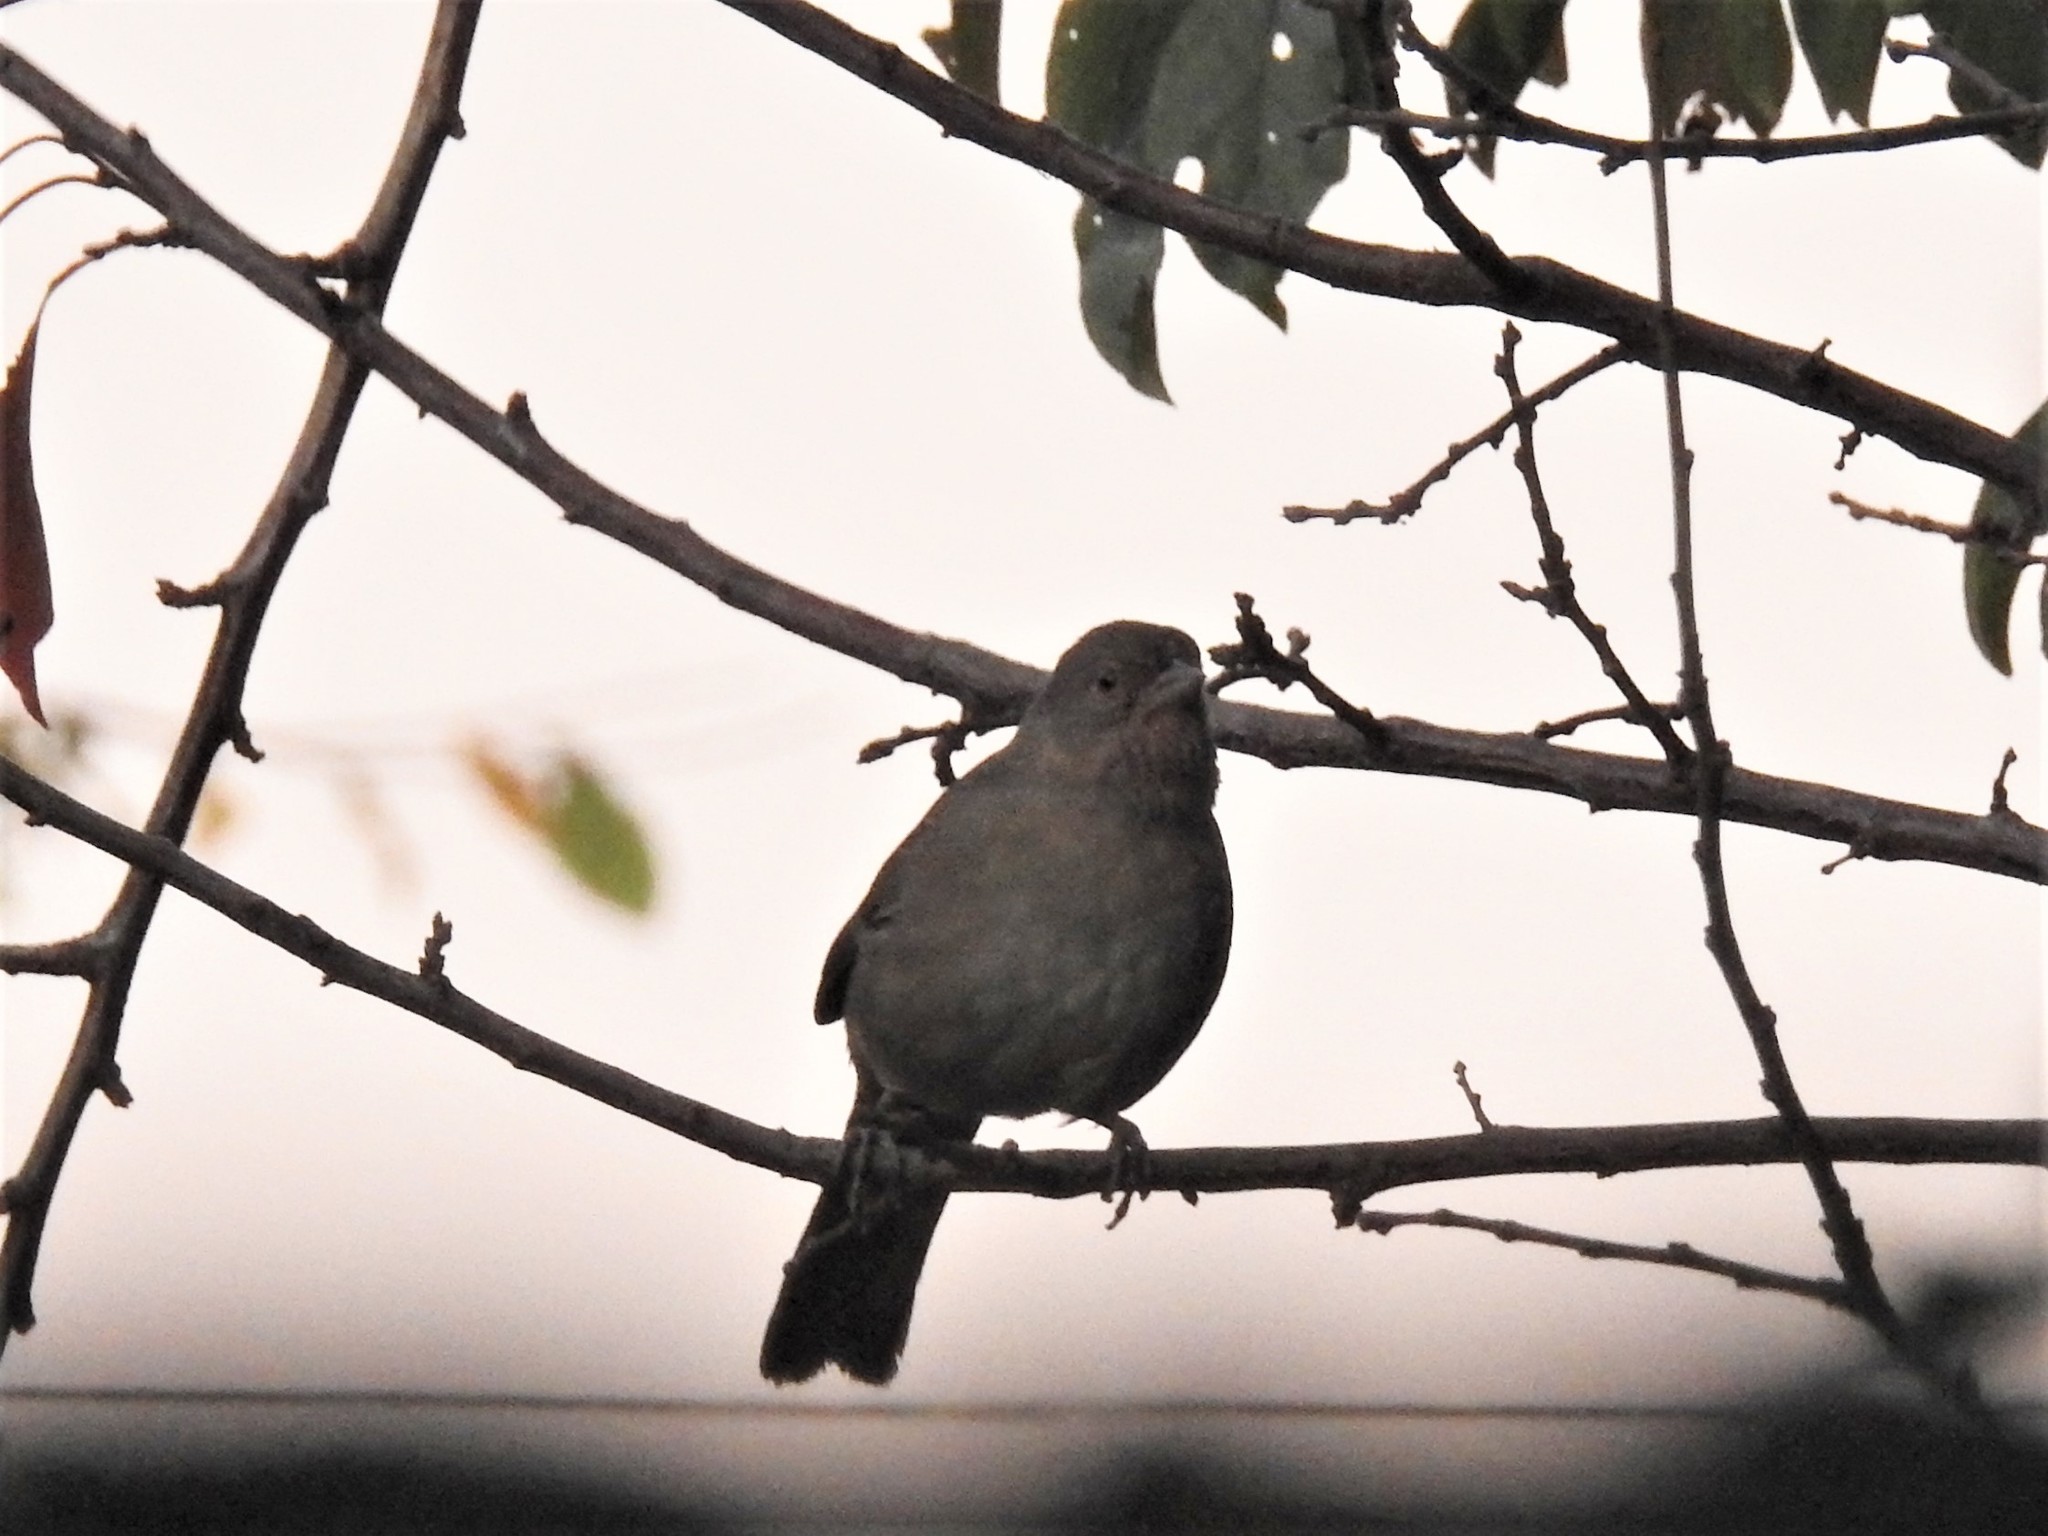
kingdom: Animalia
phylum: Chordata
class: Aves
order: Passeriformes
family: Passerellidae
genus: Melozone
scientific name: Melozone crissalis
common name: California towhee
